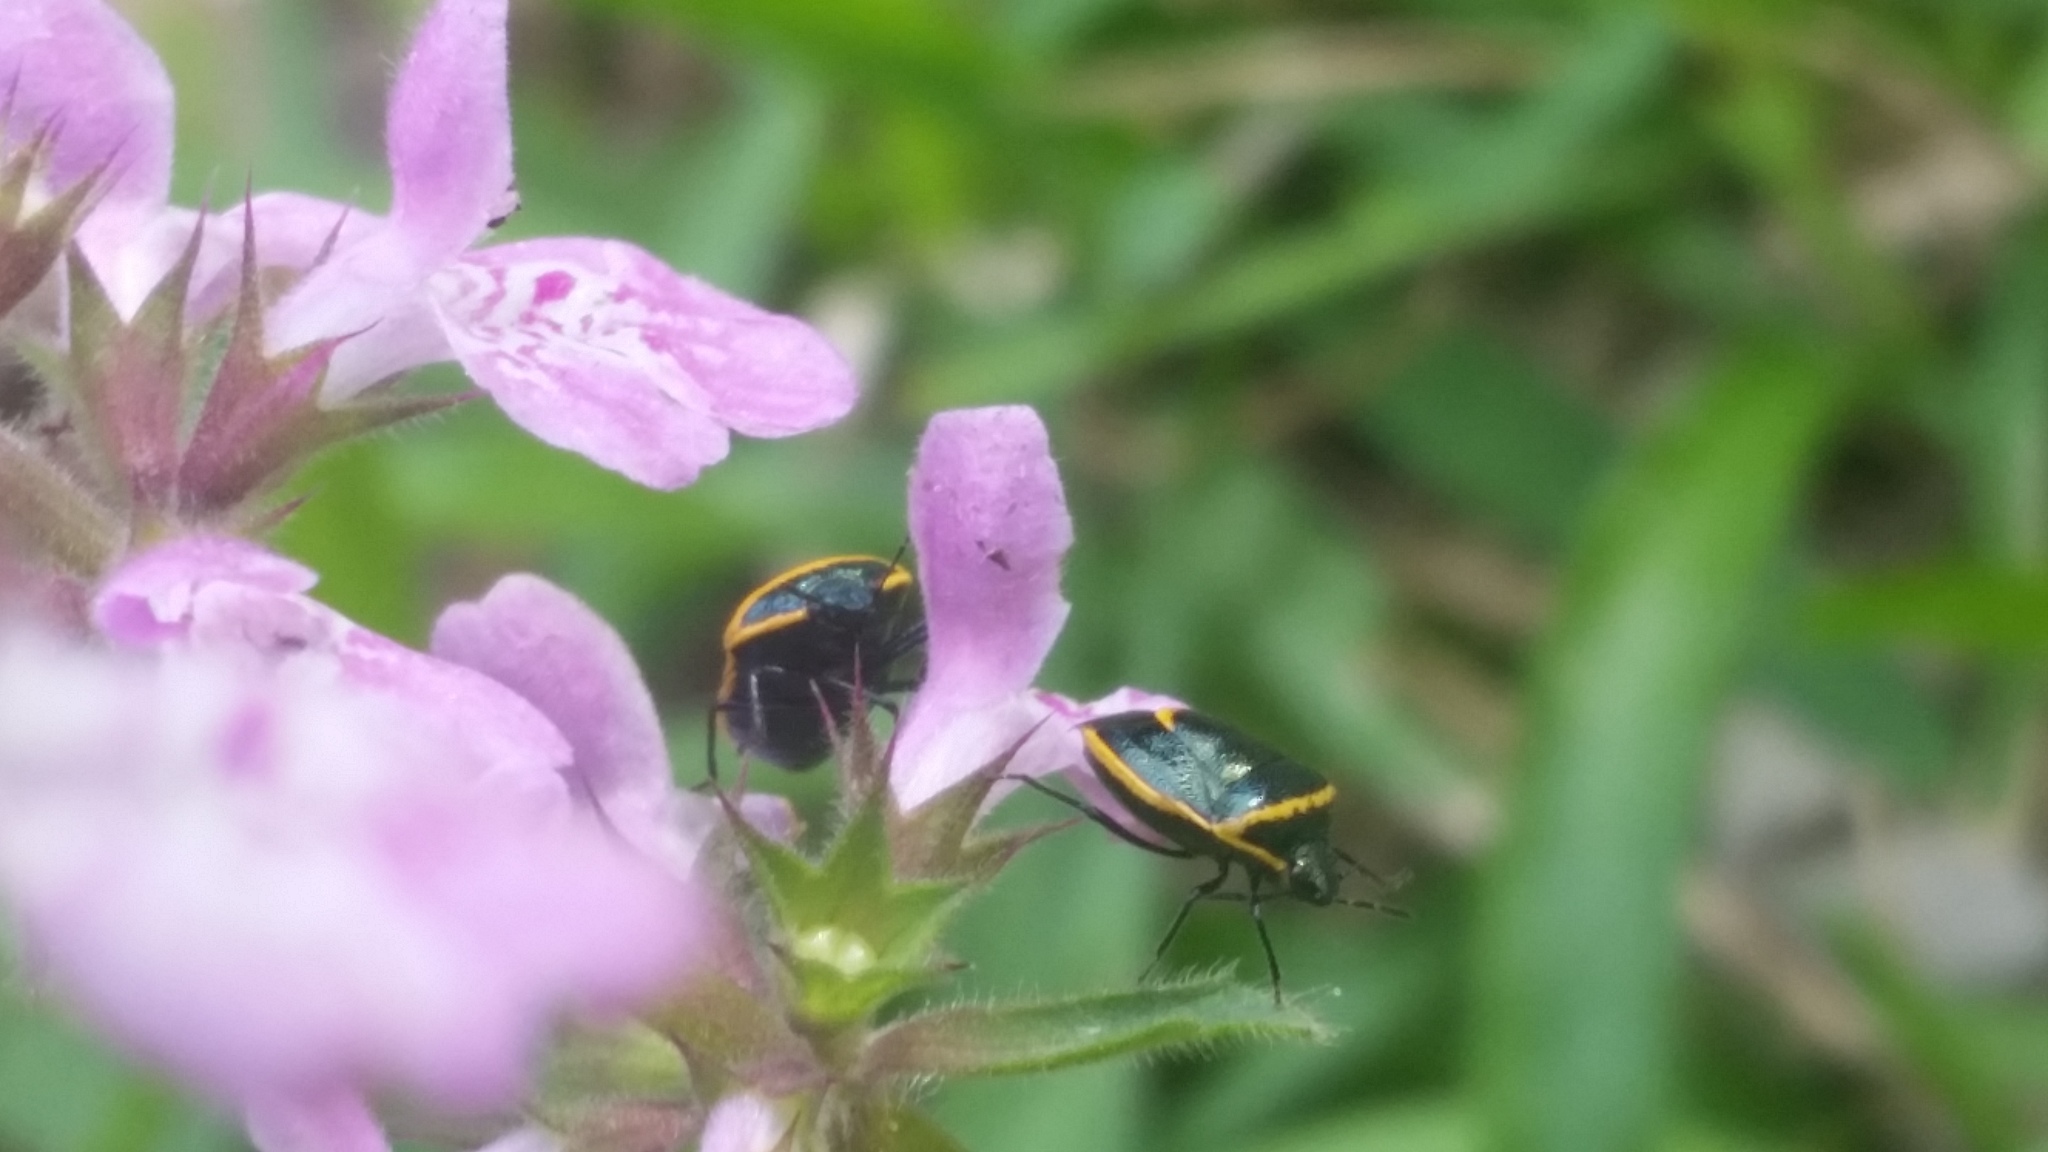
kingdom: Animalia
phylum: Arthropoda
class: Insecta
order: Hemiptera
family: Pentatomidae
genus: Cosmopepla
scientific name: Cosmopepla decorata
